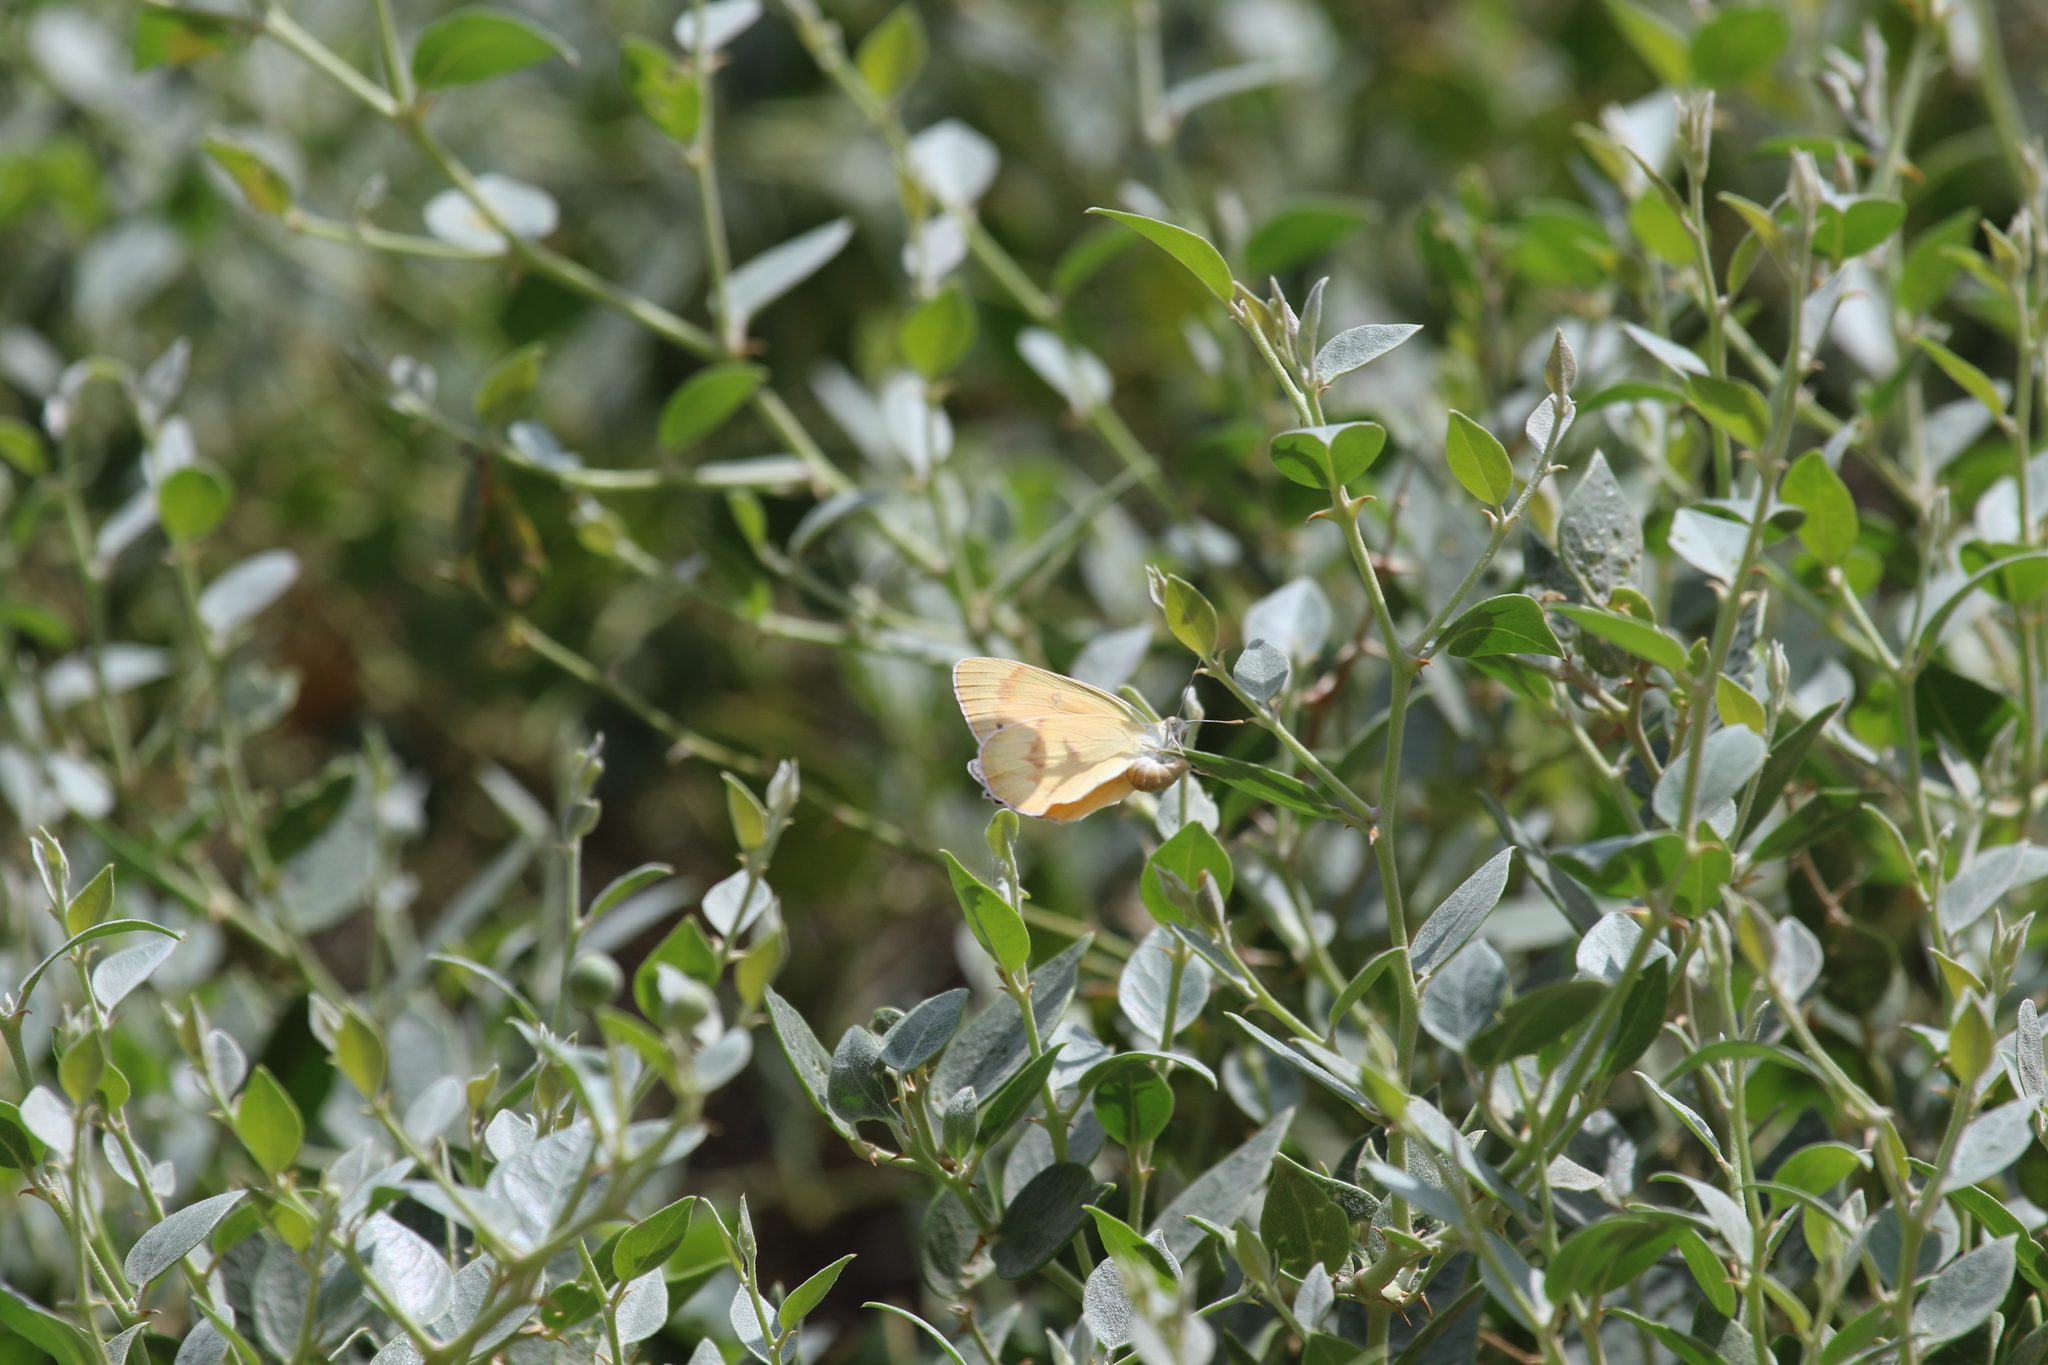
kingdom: Animalia
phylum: Arthropoda
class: Insecta
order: Lepidoptera
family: Pieridae
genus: Colotis
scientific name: Colotis fausta
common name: Large salmon arab
